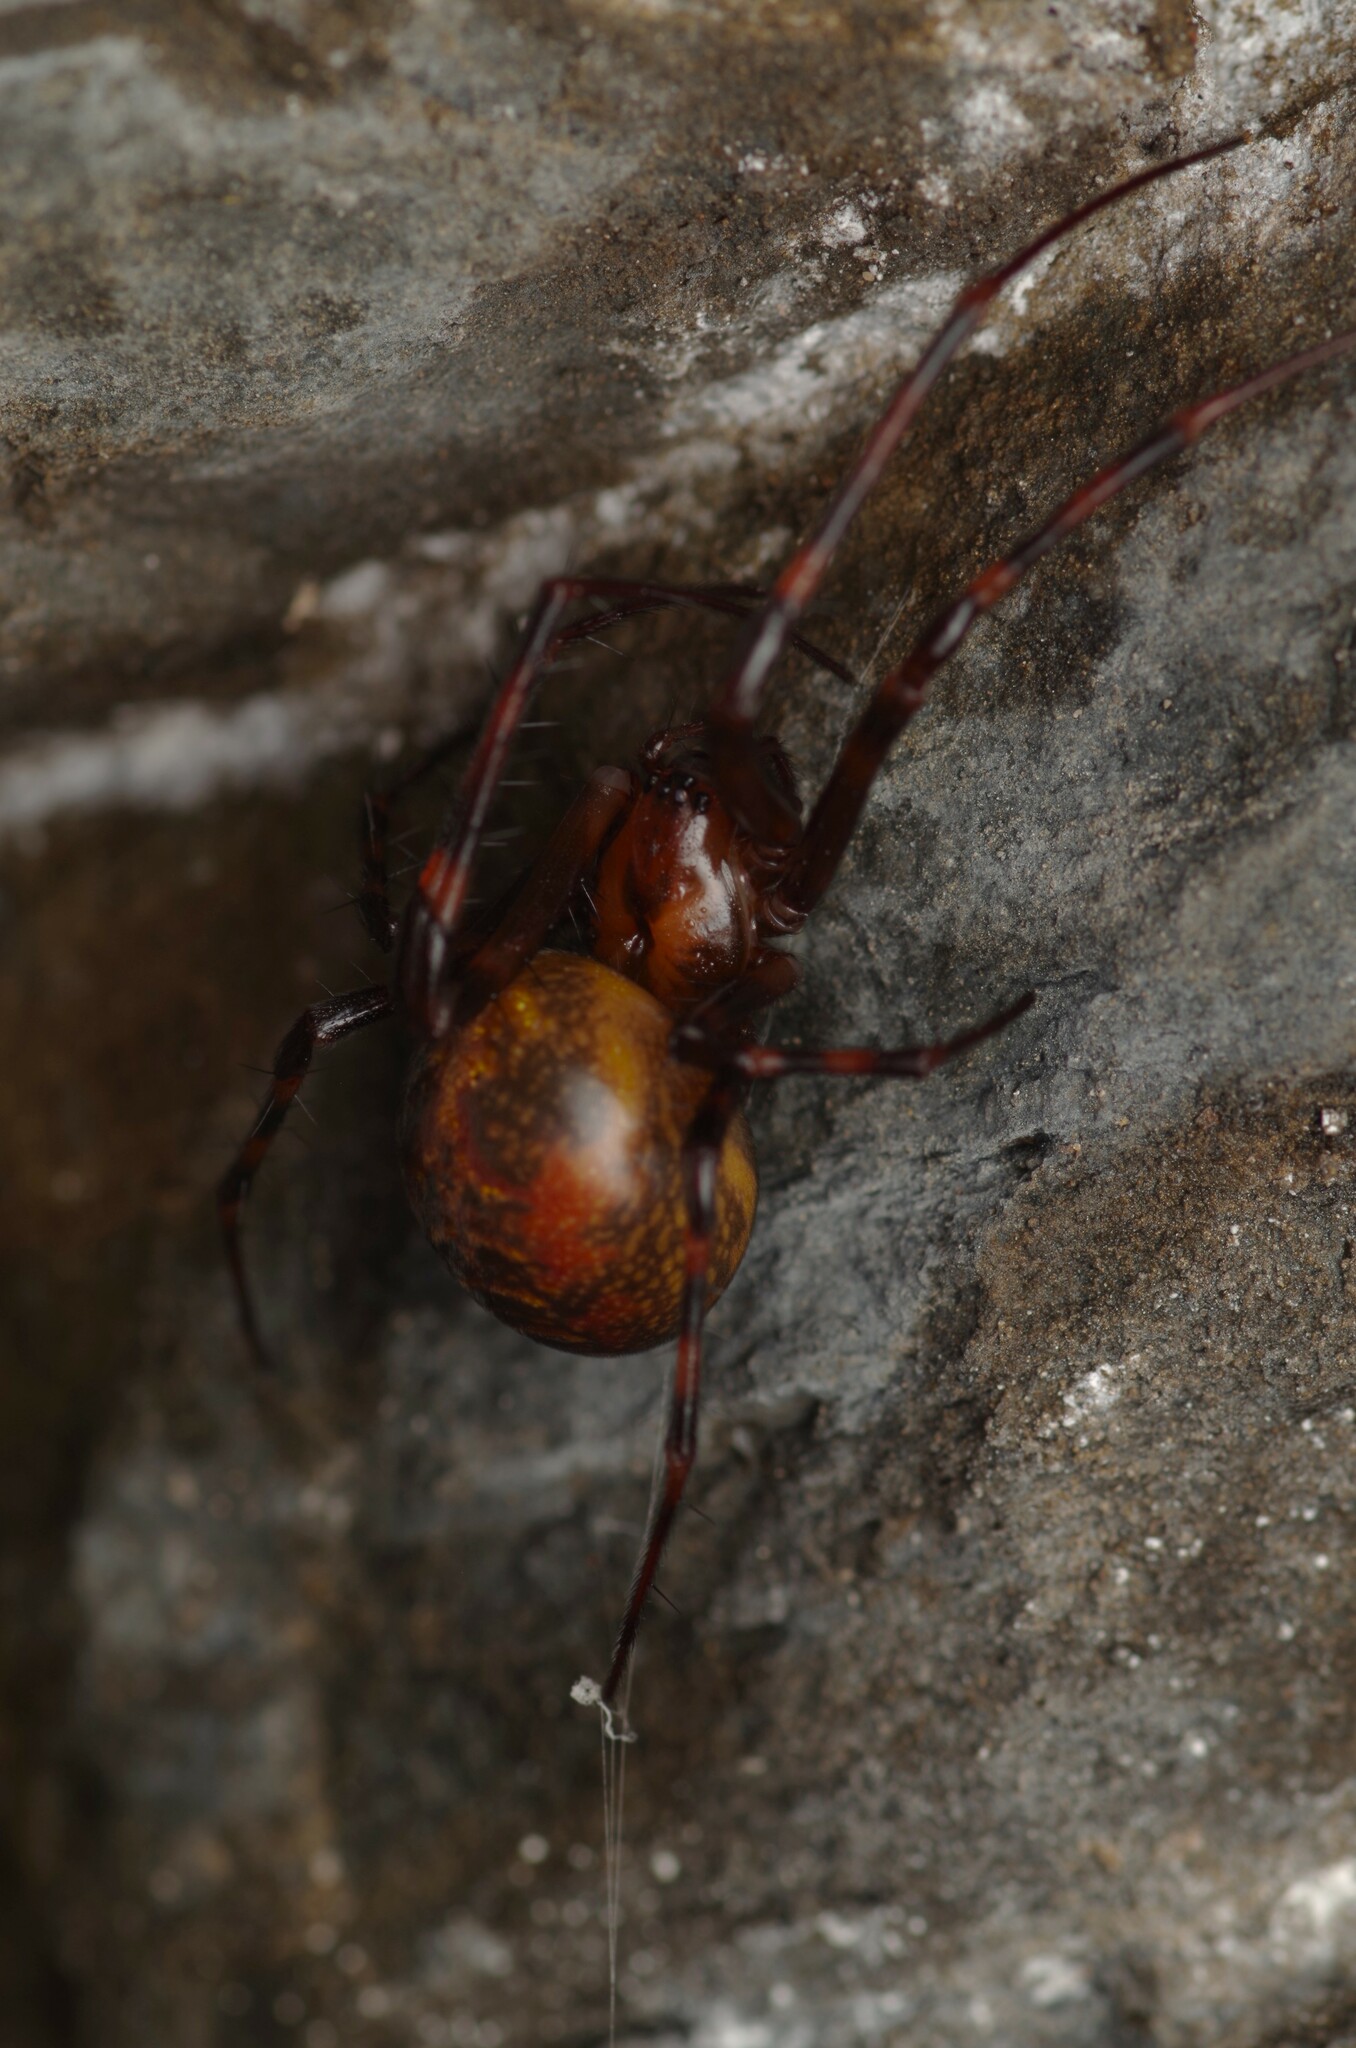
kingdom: Animalia
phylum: Arthropoda
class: Arachnida
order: Araneae
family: Tetragnathidae
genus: Meta
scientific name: Meta menardi
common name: Cave spider
